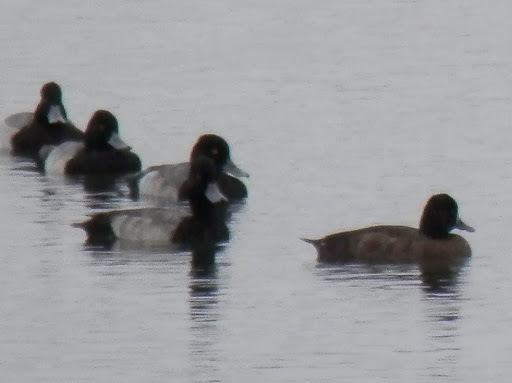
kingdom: Animalia
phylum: Chordata
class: Aves
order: Anseriformes
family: Anatidae
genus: Aythya
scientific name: Aythya affinis
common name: Lesser scaup
